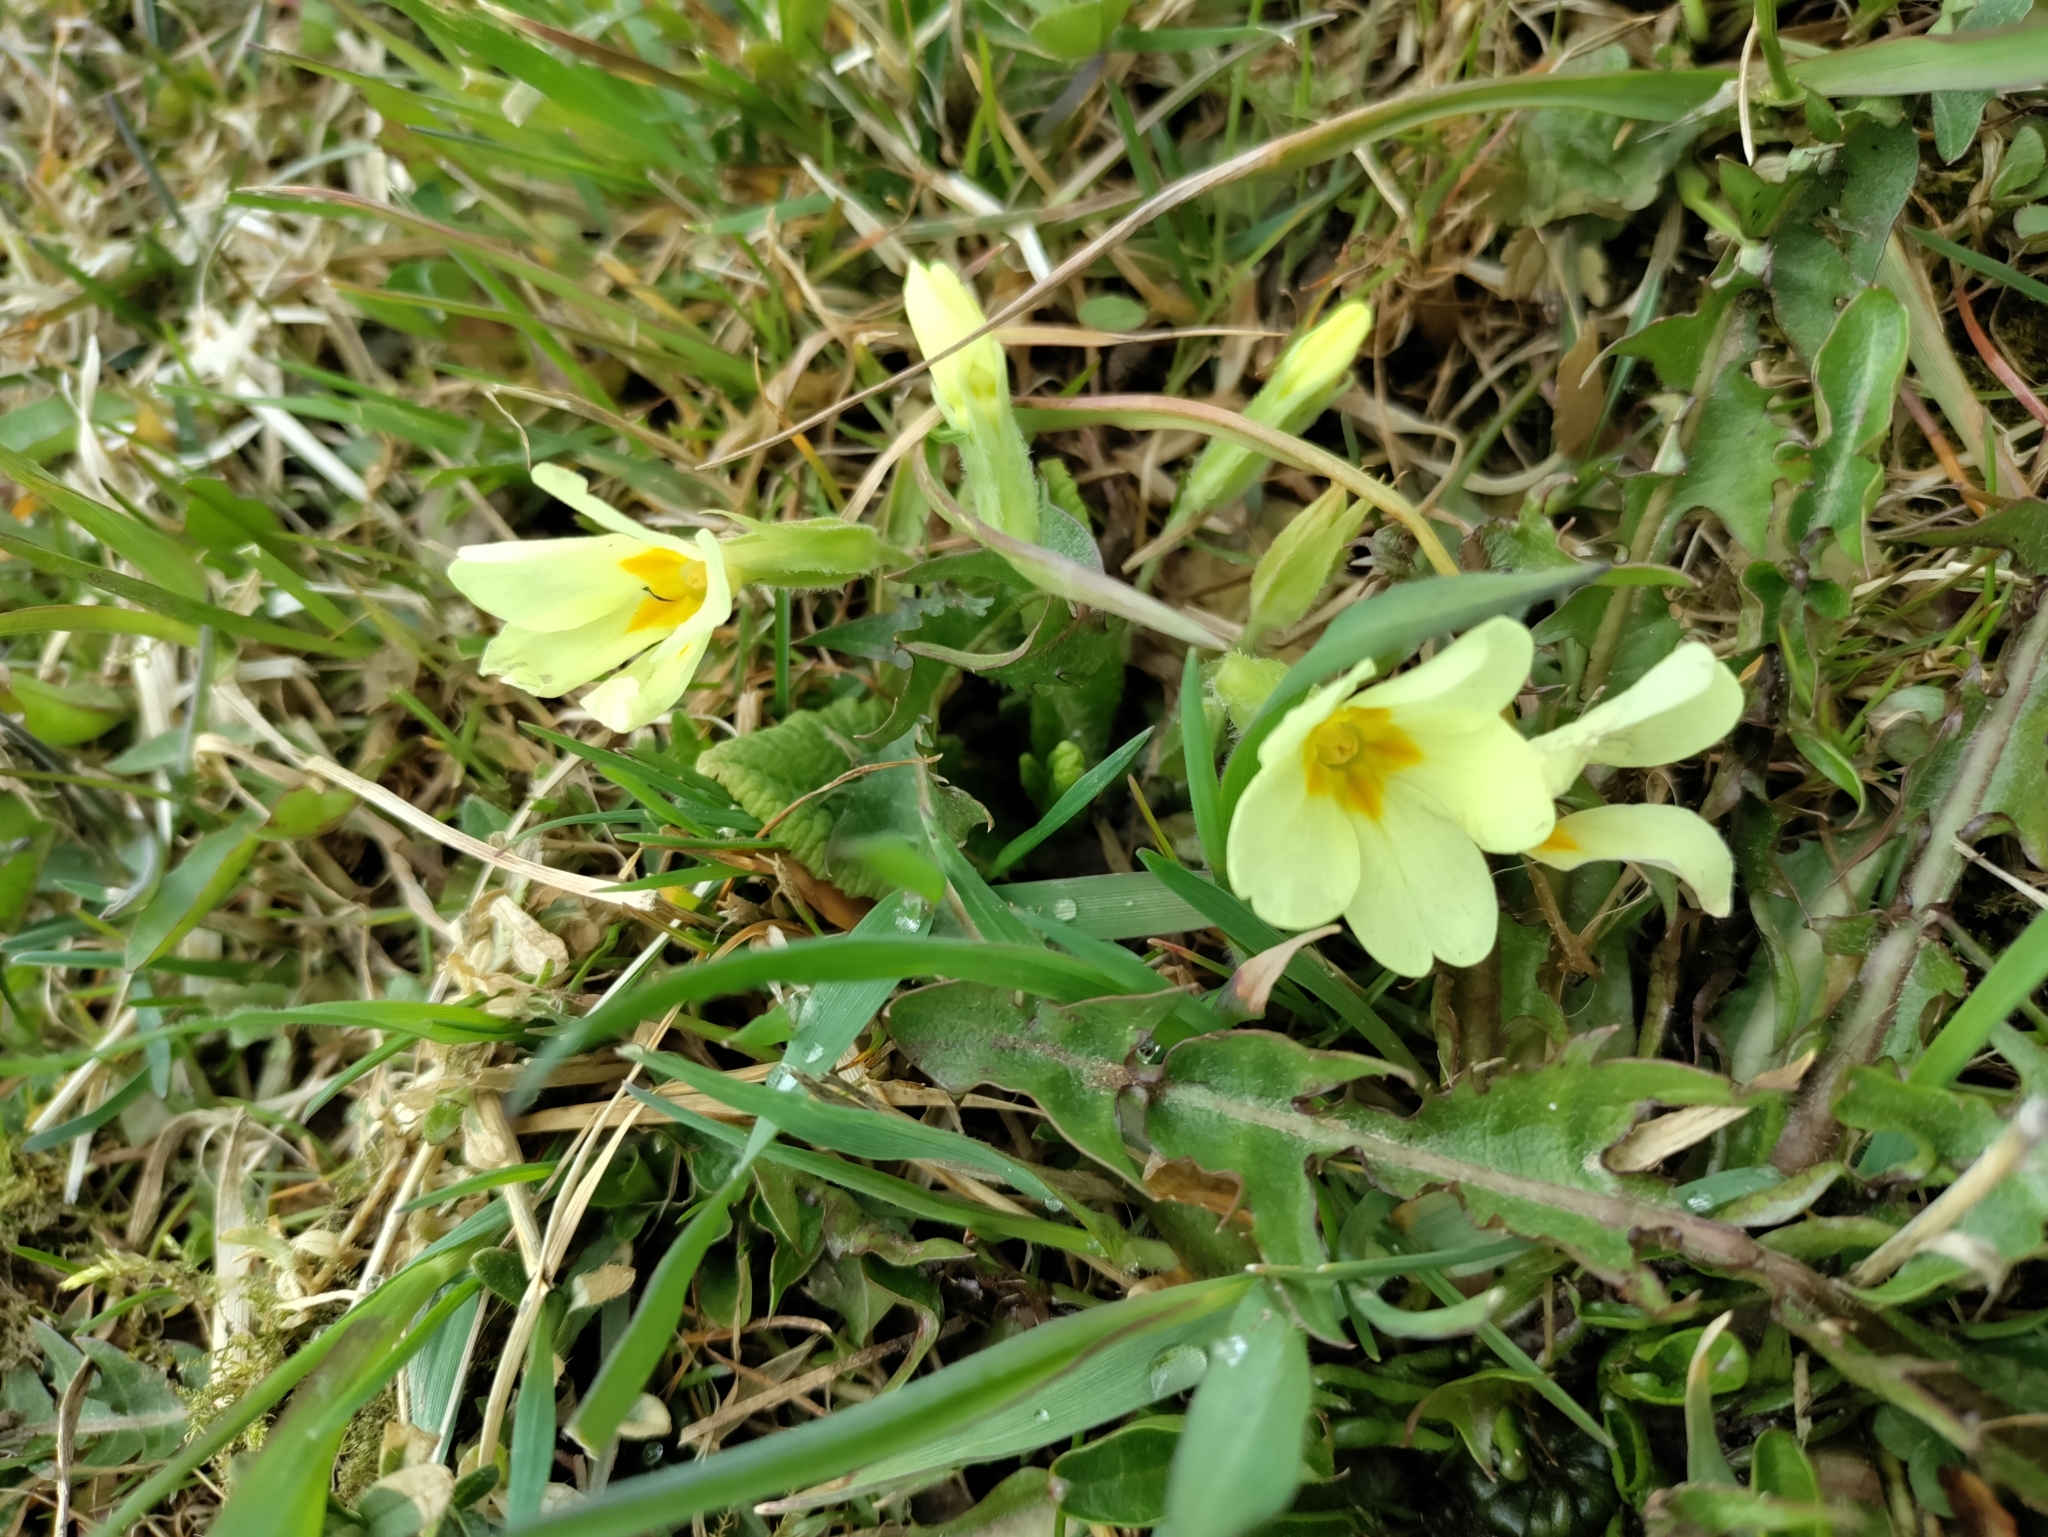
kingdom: Plantae
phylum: Tracheophyta
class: Magnoliopsida
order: Ericales
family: Primulaceae
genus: Primula
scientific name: Primula vulgaris
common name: Primrose
